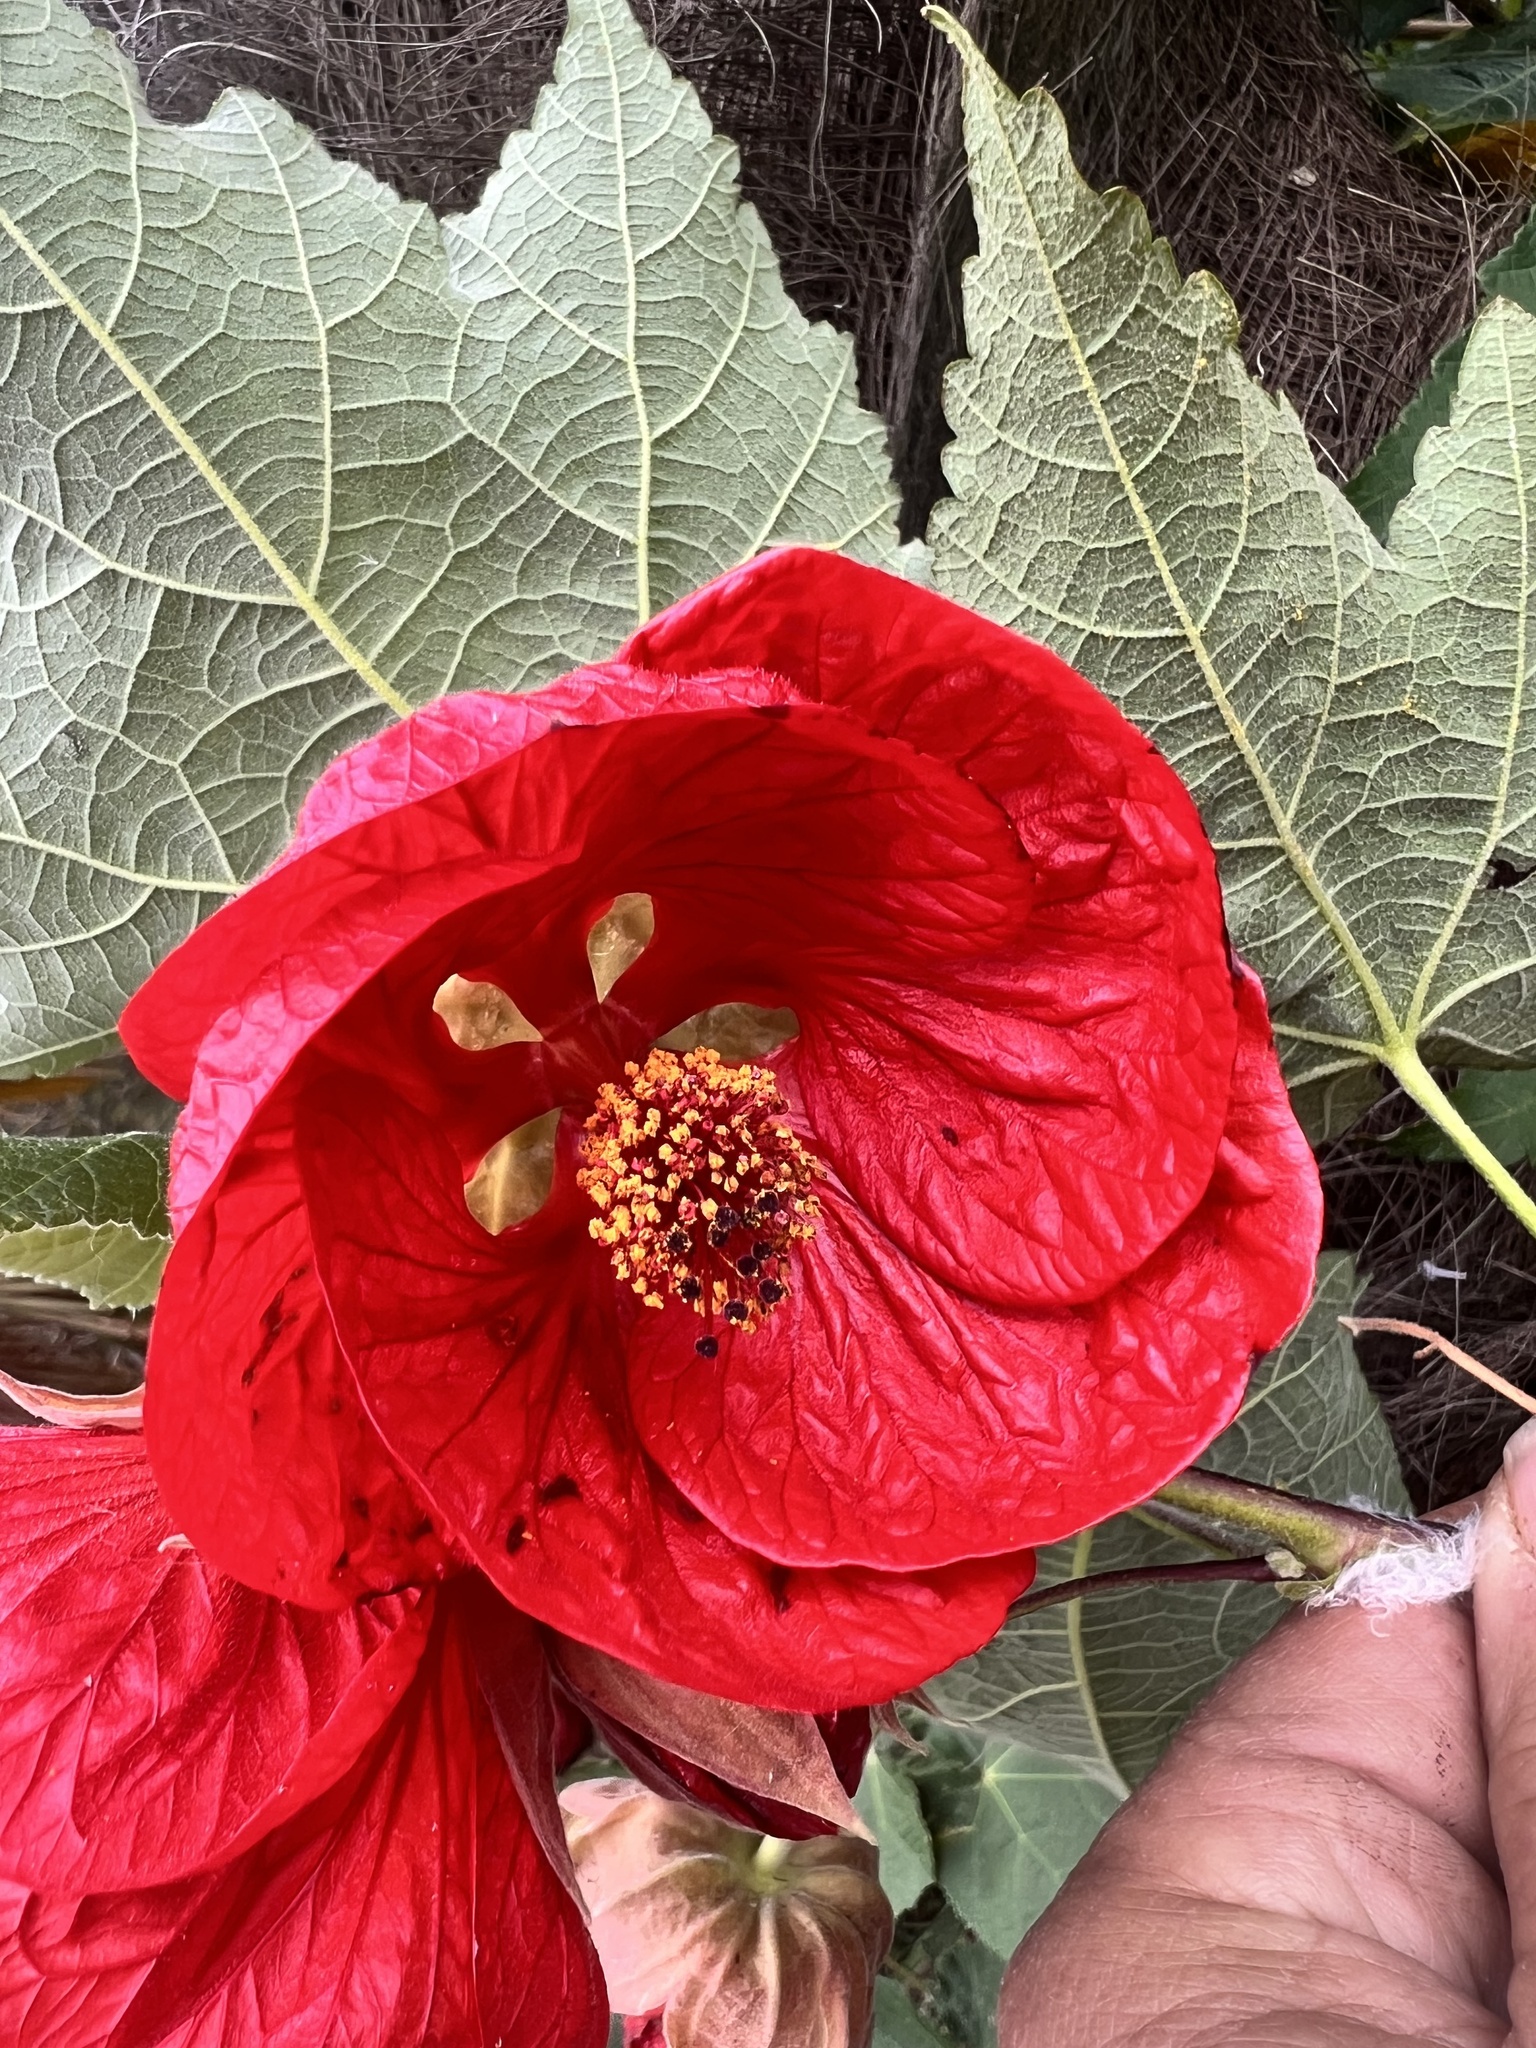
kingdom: Plantae
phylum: Tracheophyta
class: Magnoliopsida
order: Malvales
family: Malvaceae
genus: Callianthe
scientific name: Callianthe megapotamica
